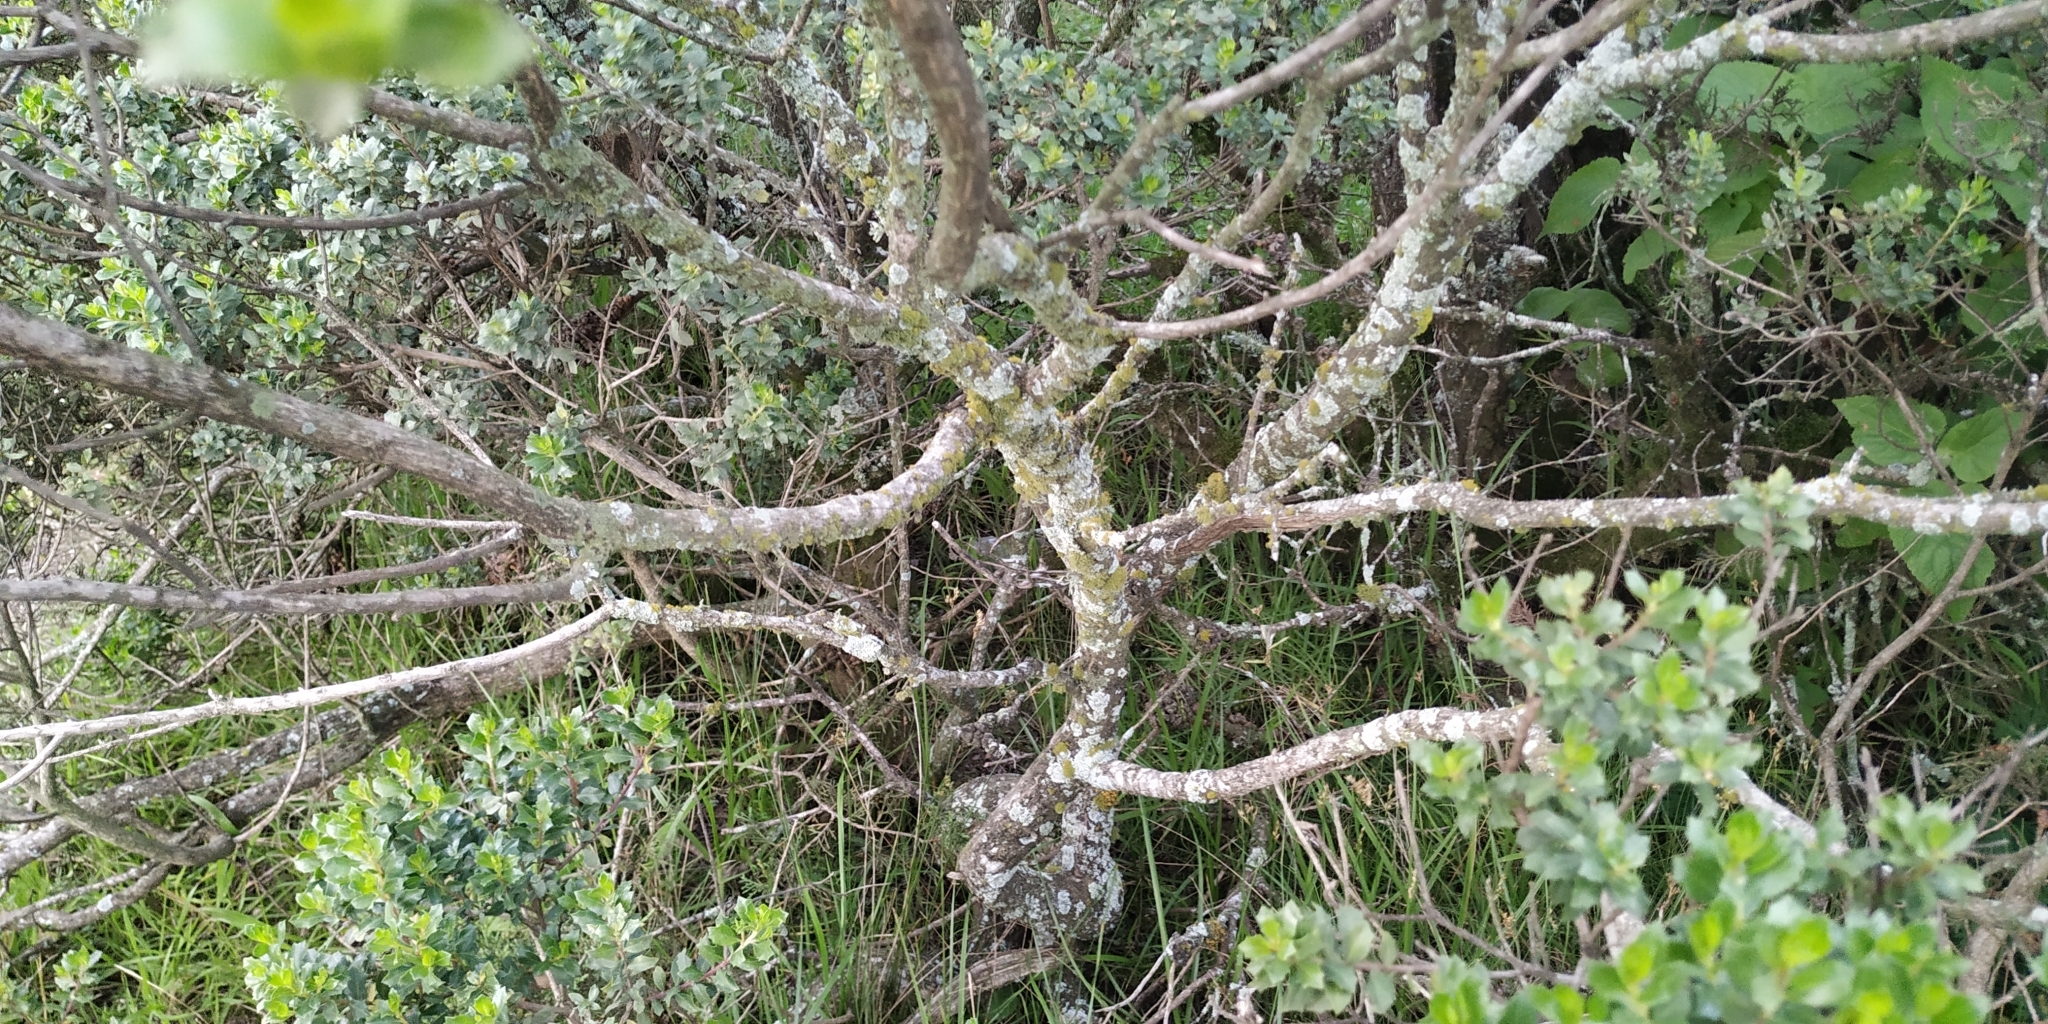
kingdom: Plantae
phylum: Tracheophyta
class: Magnoliopsida
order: Asterales
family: Asteraceae
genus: Baccharis
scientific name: Baccharis conferta
